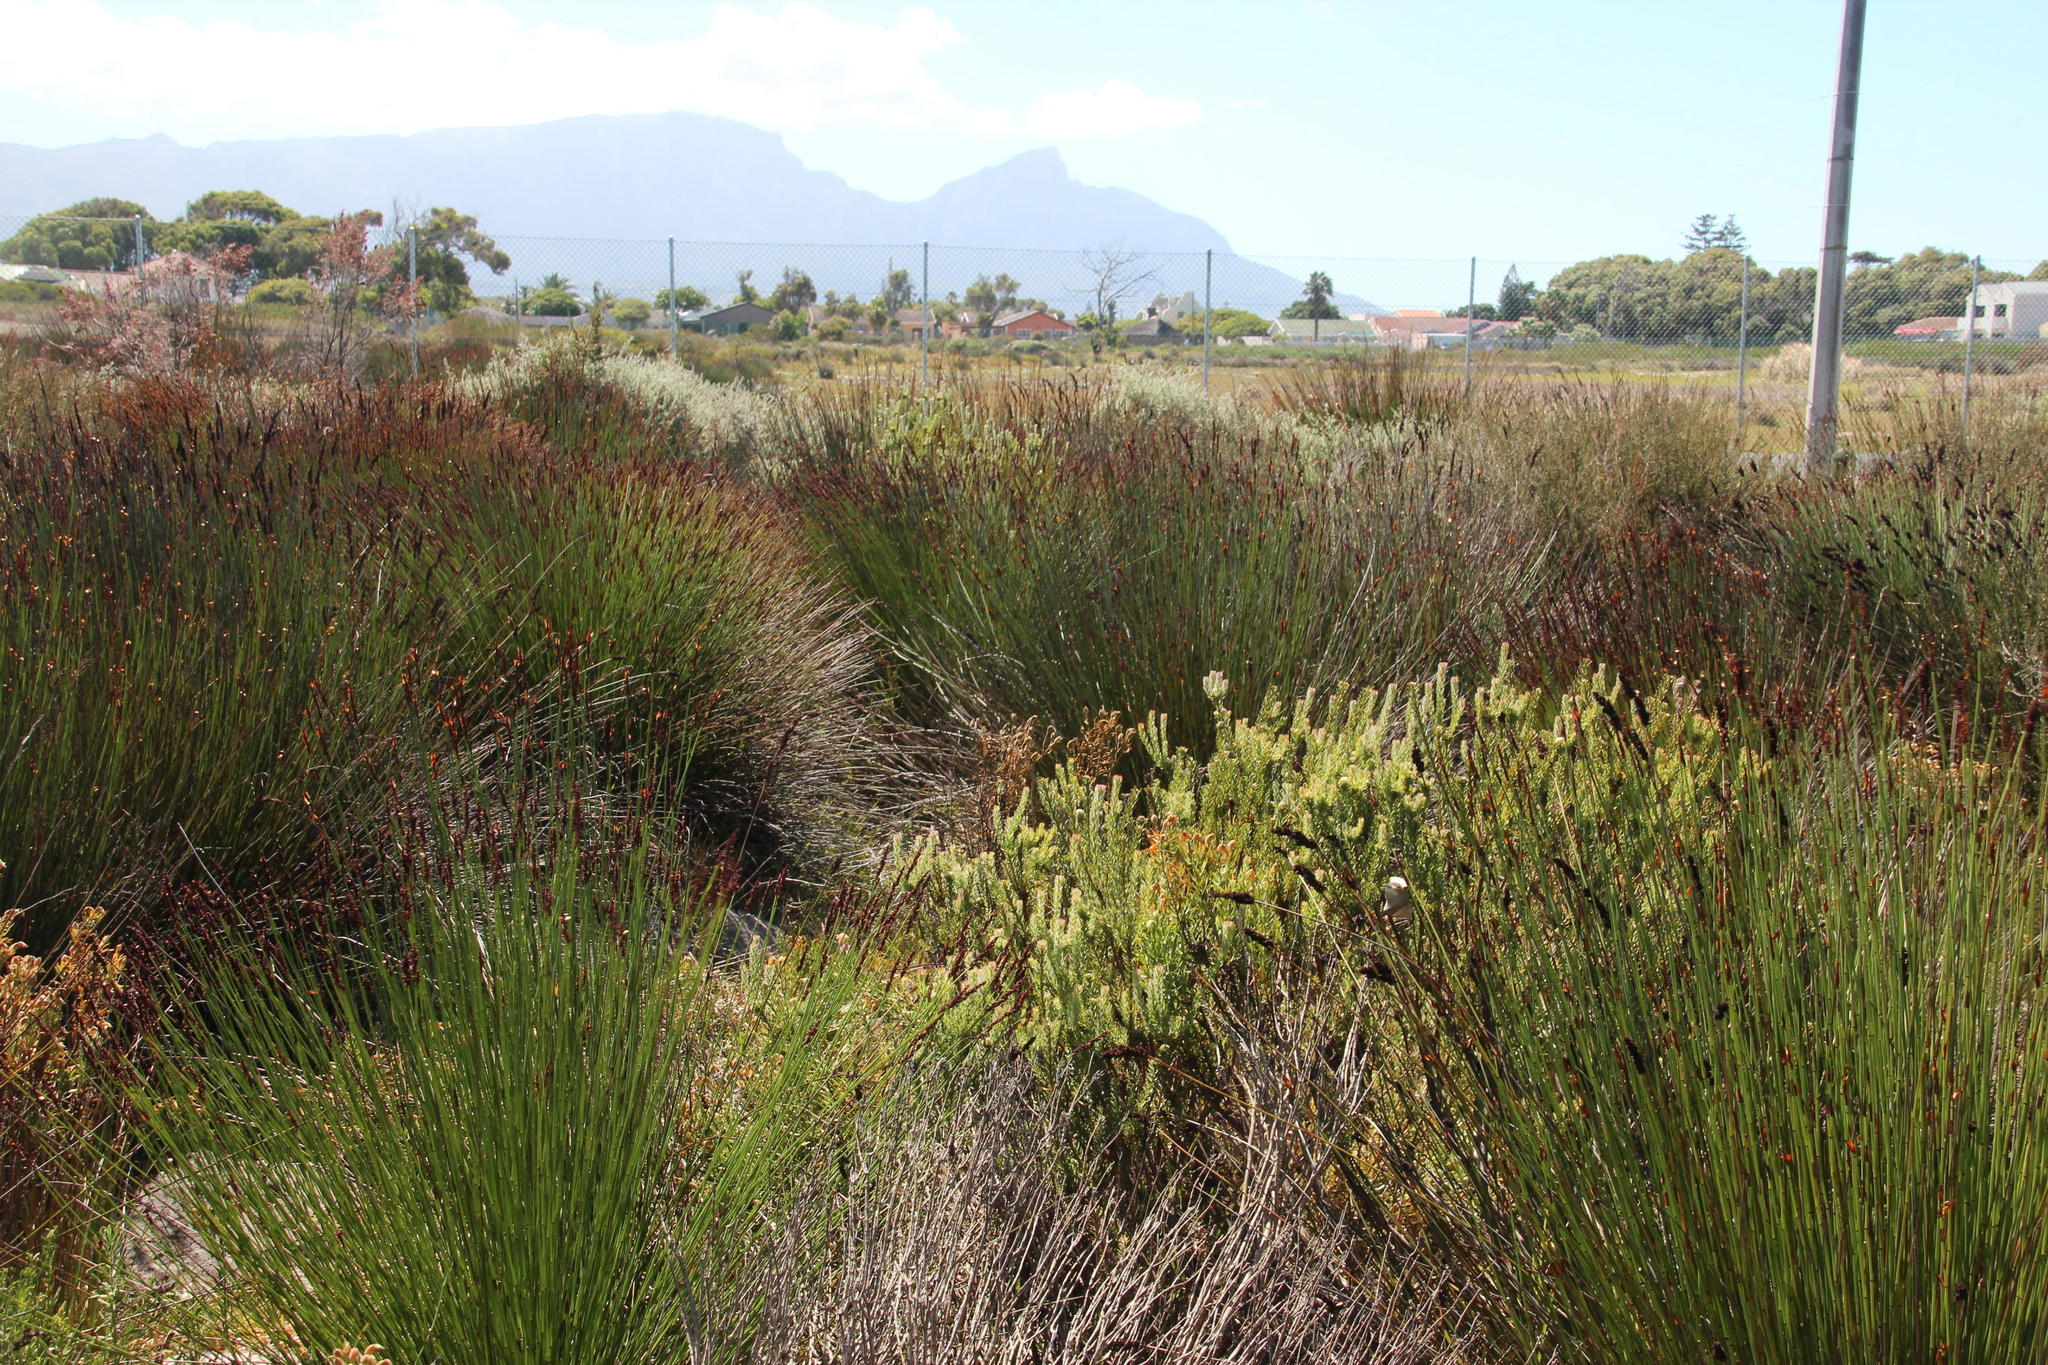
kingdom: Plantae
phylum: Tracheophyta
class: Magnoliopsida
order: Proteales
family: Proteaceae
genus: Leucadendron
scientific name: Leucadendron levisanus
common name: Cape flats conebush
